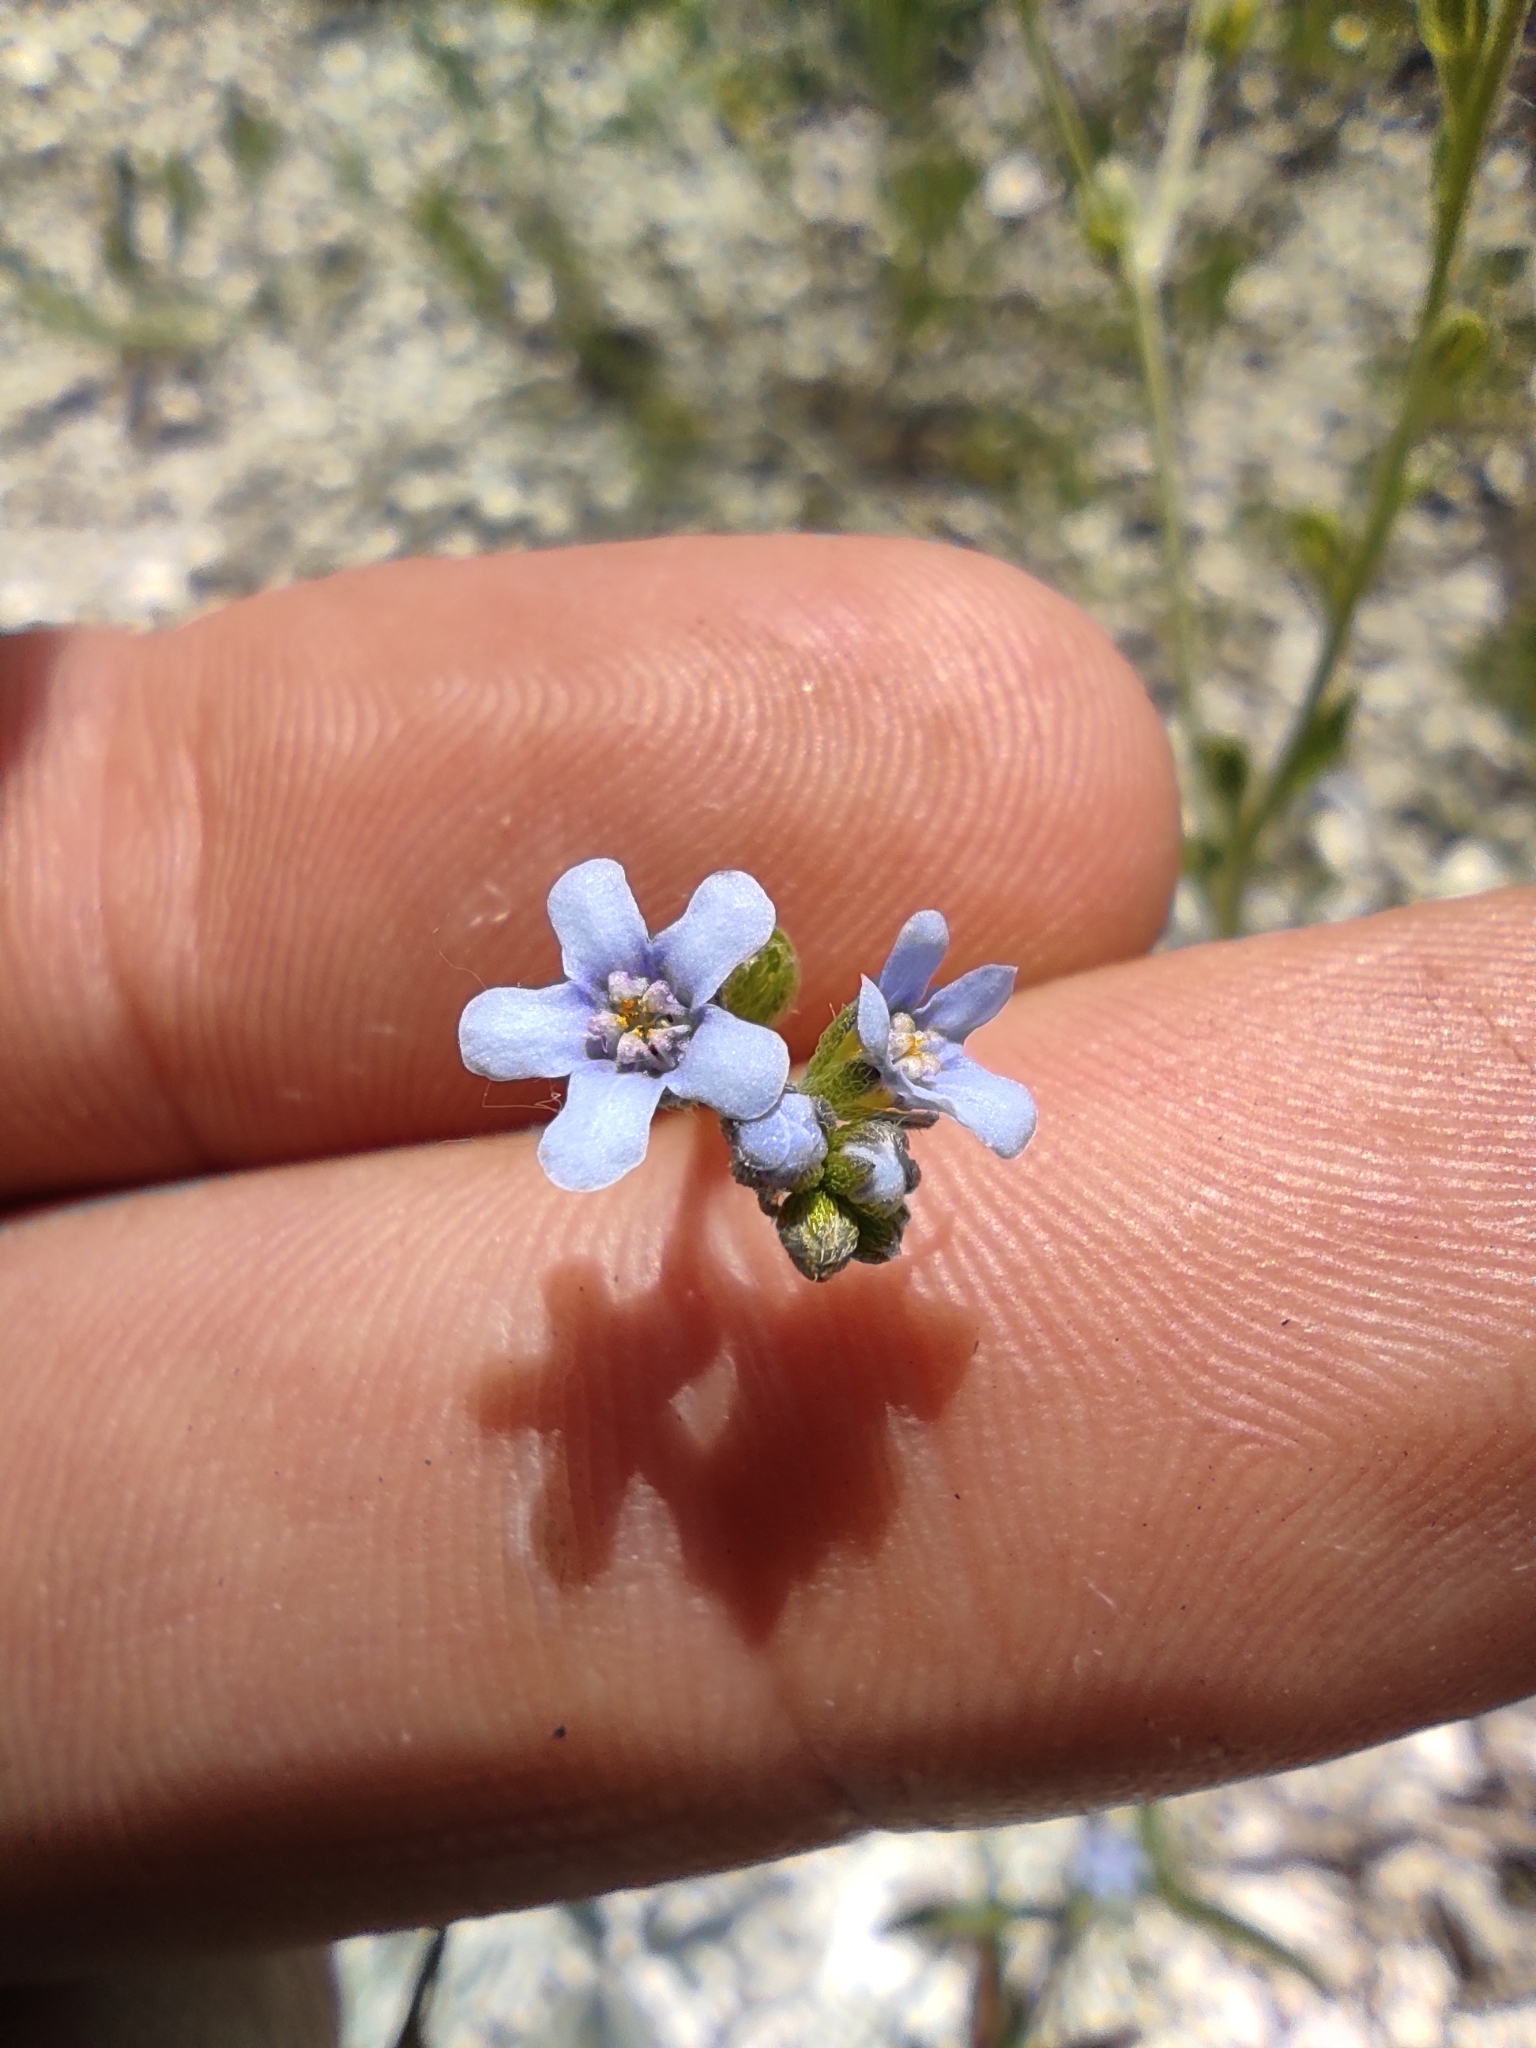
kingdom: Plantae
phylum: Tracheophyta
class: Magnoliopsida
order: Boraginales
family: Boraginaceae
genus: Lappula
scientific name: Lappula barbata
